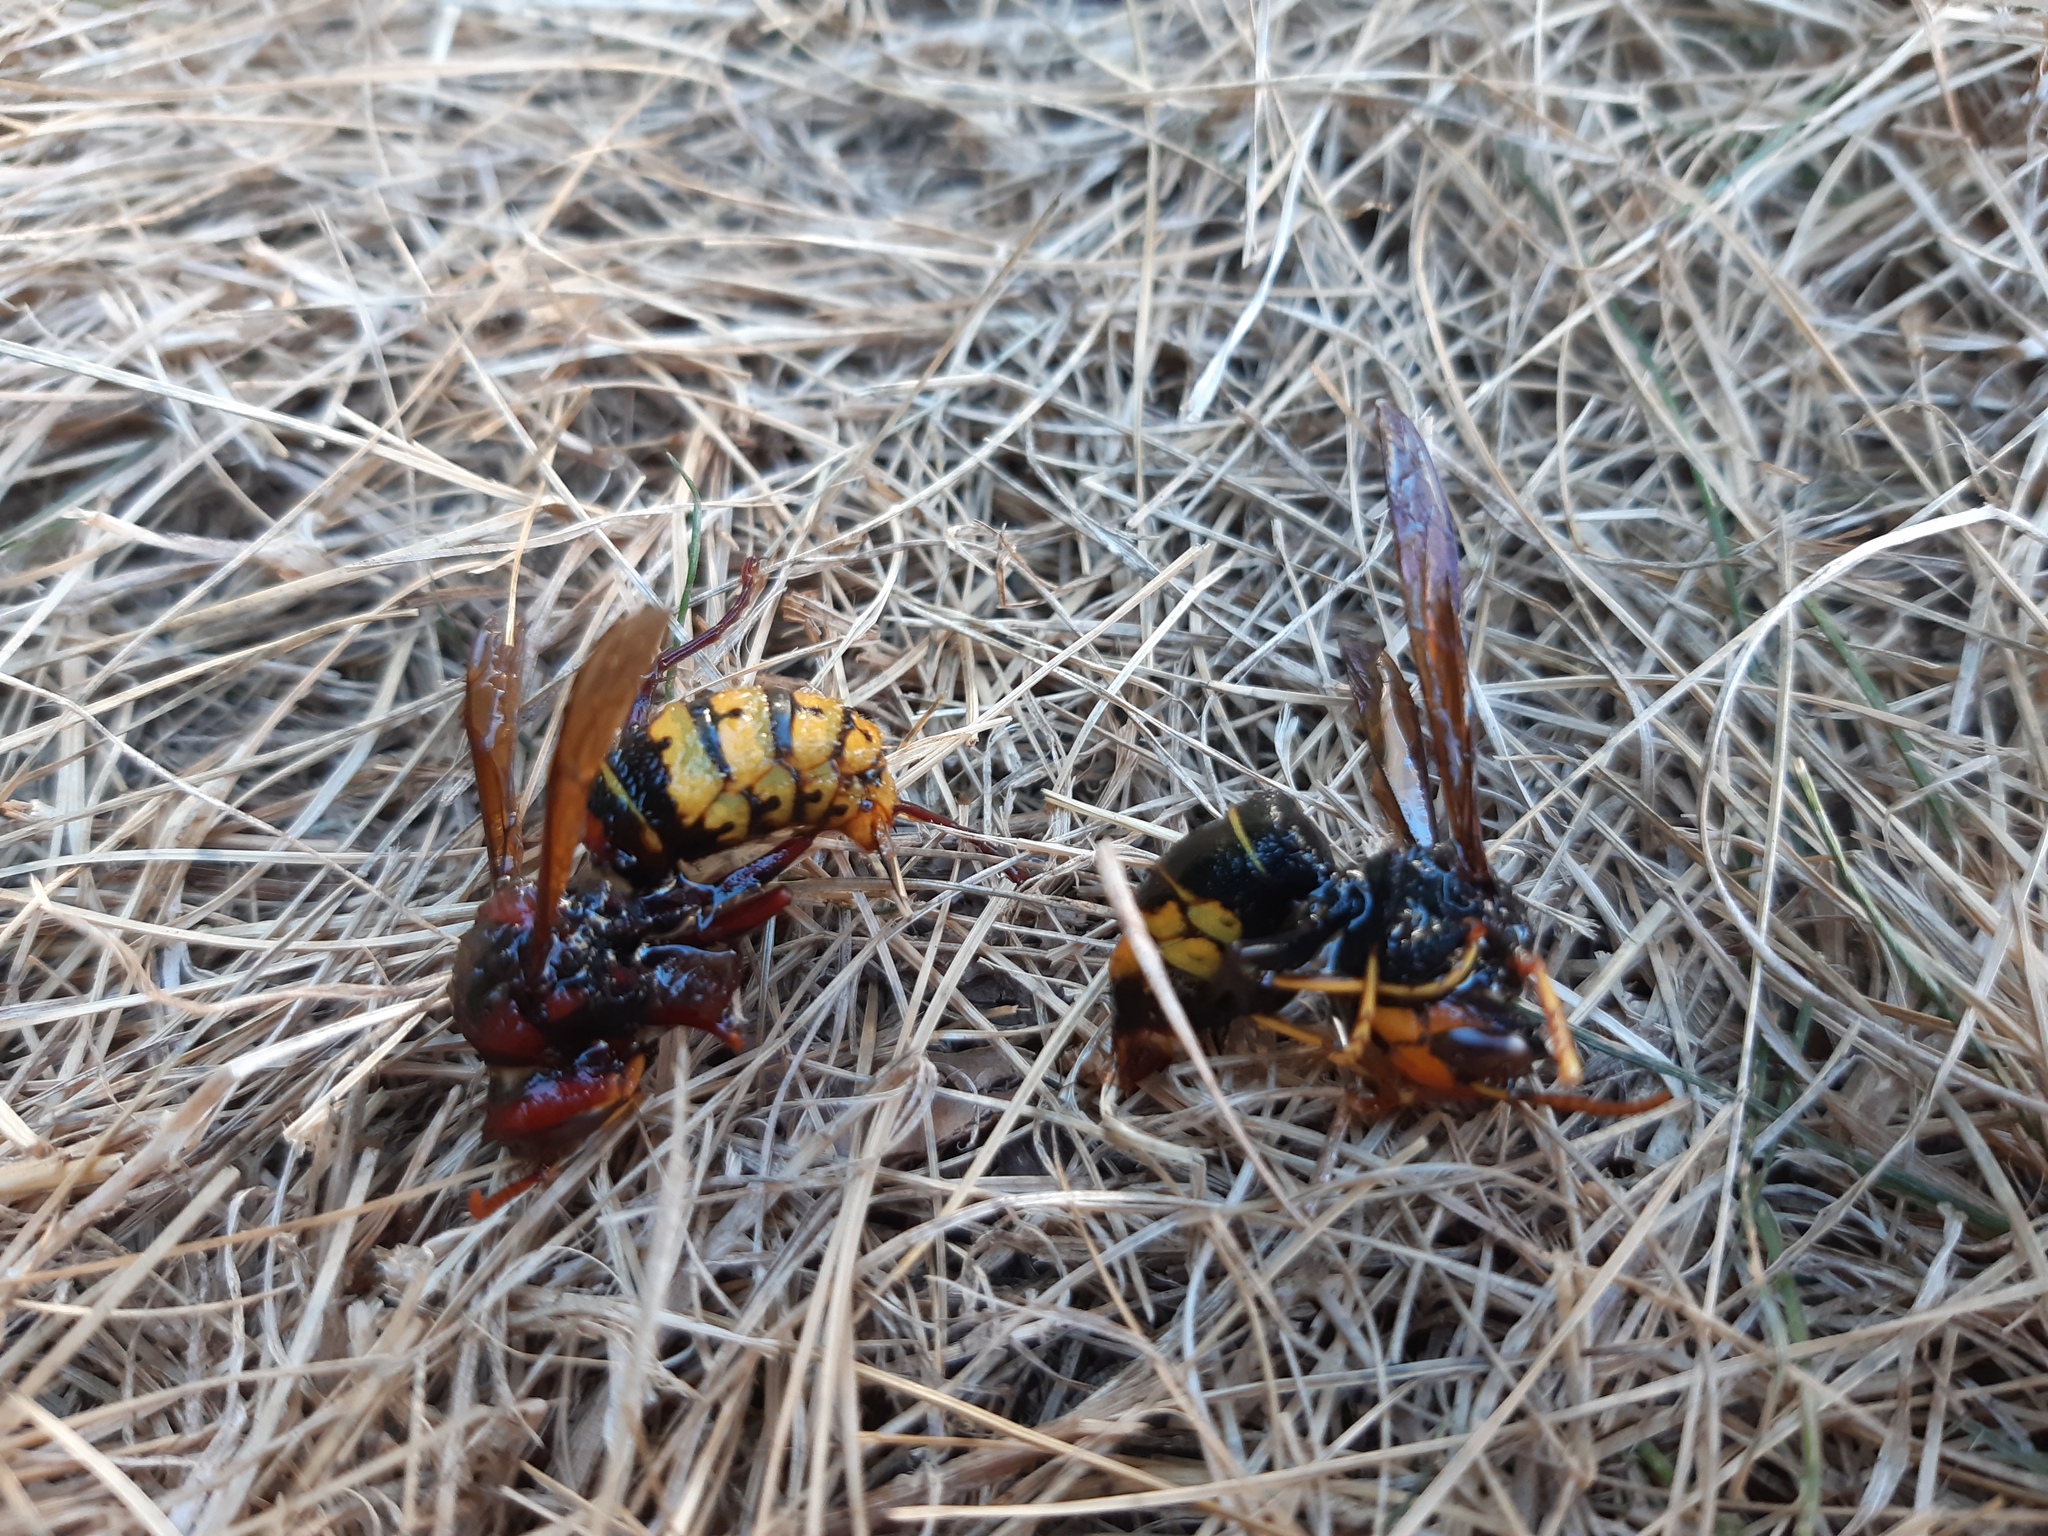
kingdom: Animalia
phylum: Arthropoda
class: Insecta
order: Hymenoptera
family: Vespidae
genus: Vespa
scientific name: Vespa velutina
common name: Asian hornet
